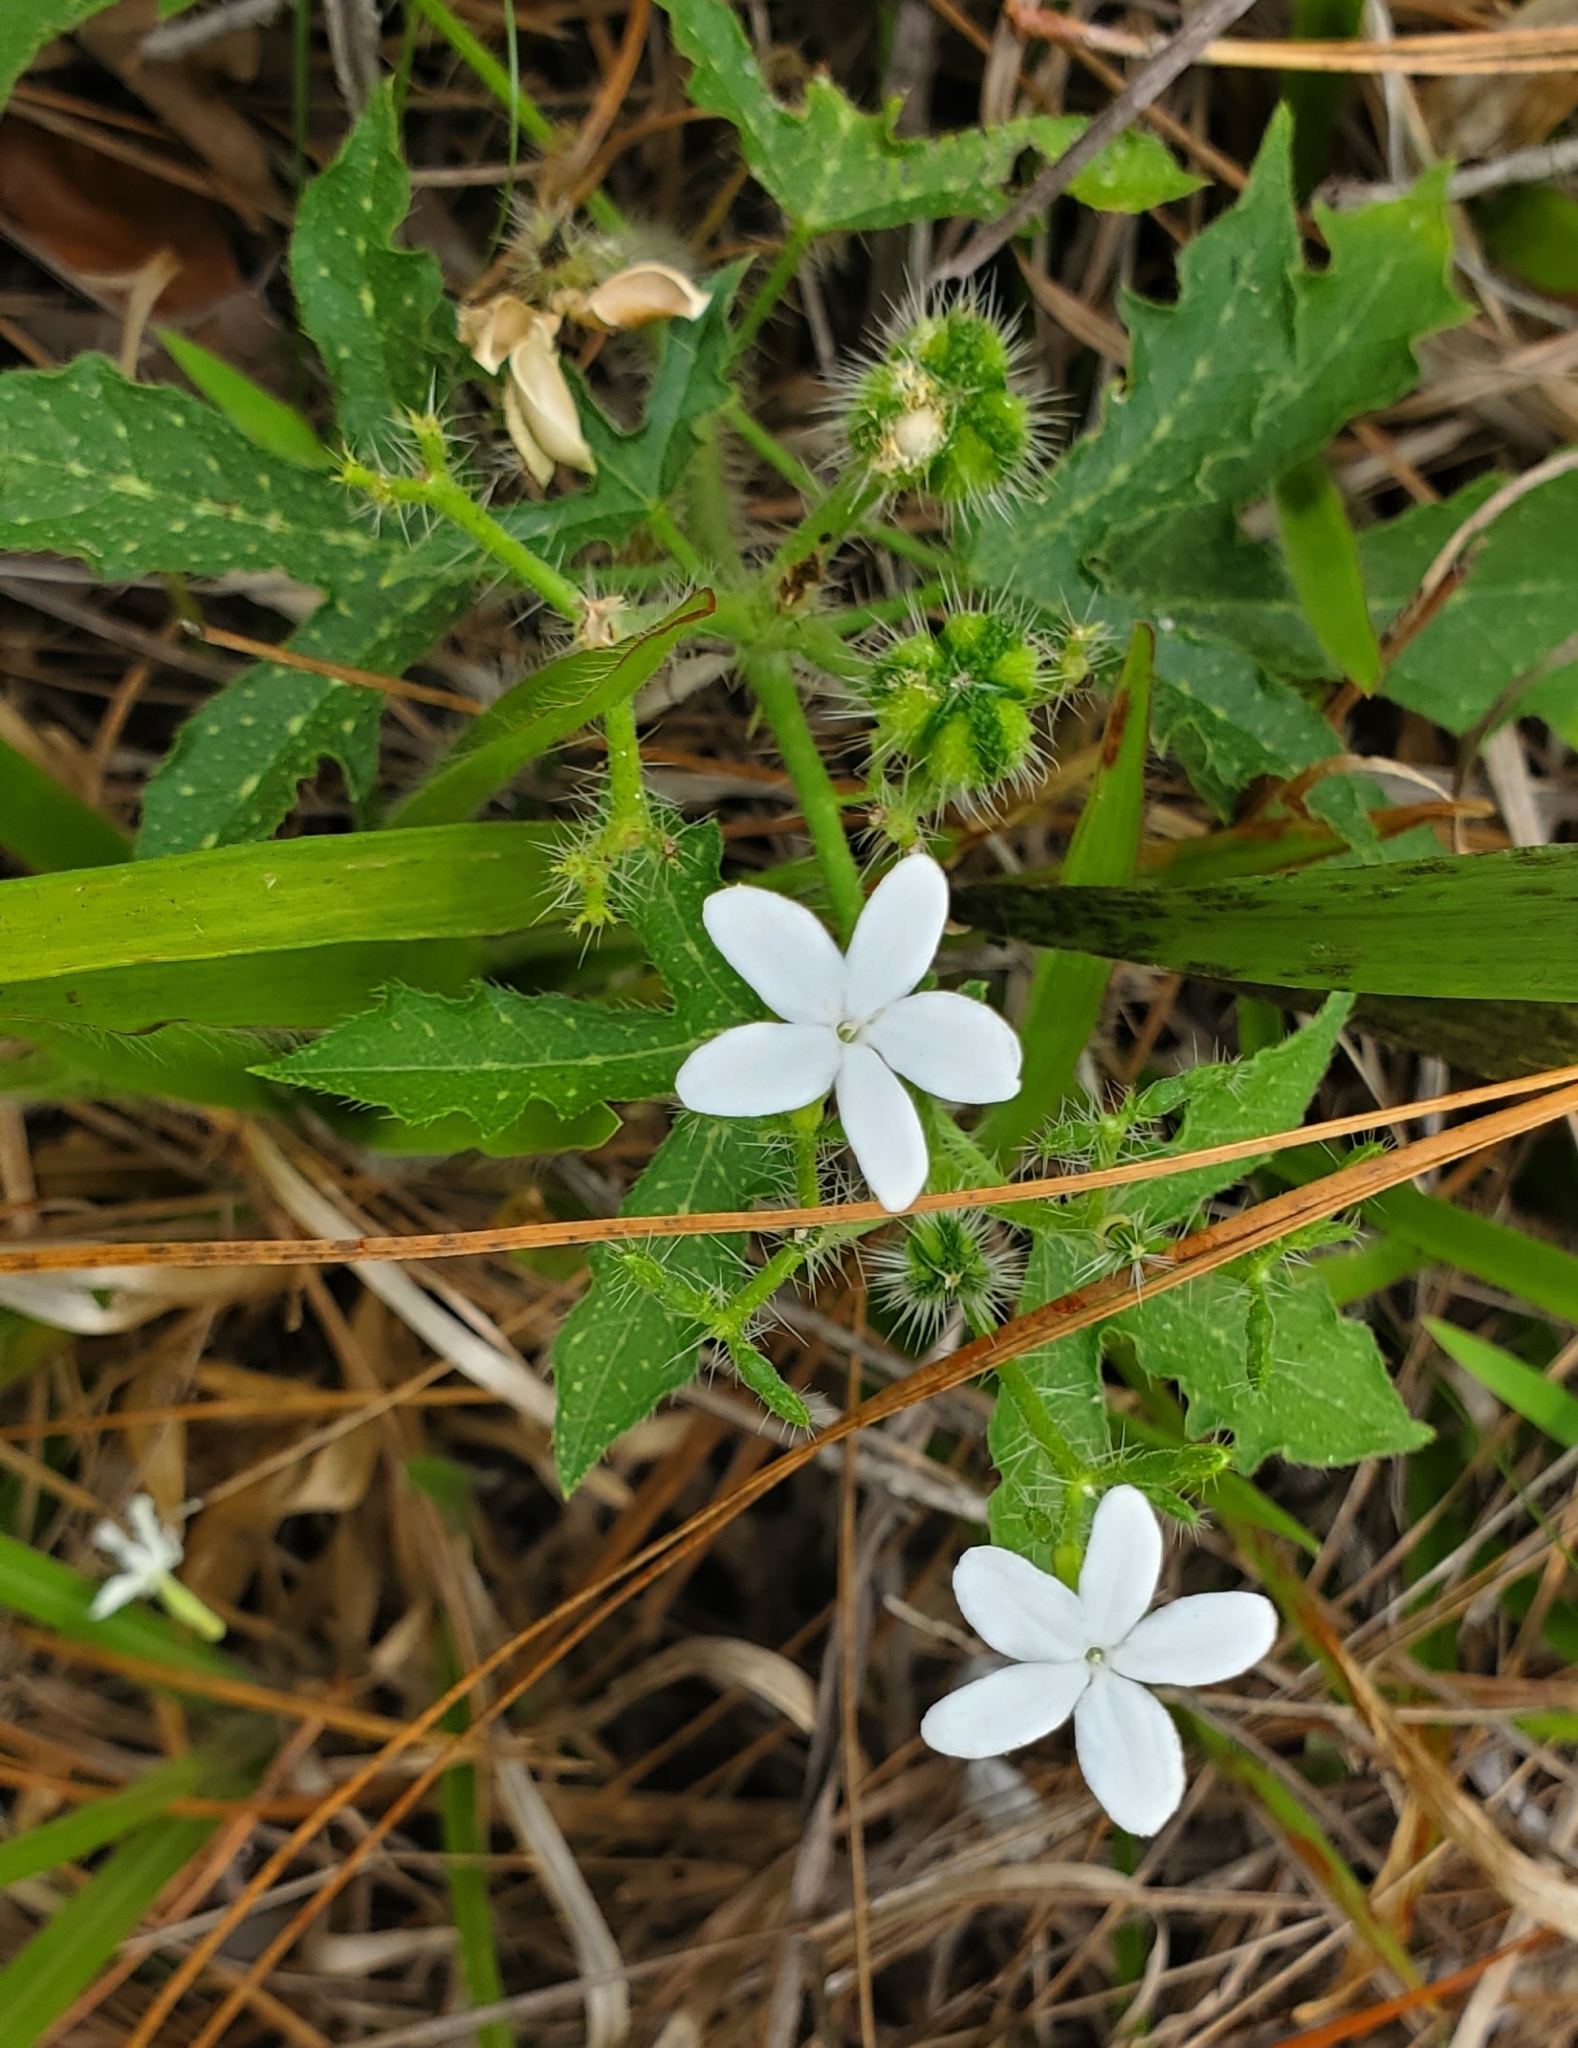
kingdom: Plantae
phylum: Tracheophyta
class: Magnoliopsida
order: Malpighiales
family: Euphorbiaceae
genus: Cnidoscolus
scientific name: Cnidoscolus stimulosus
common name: Bull-nettle
